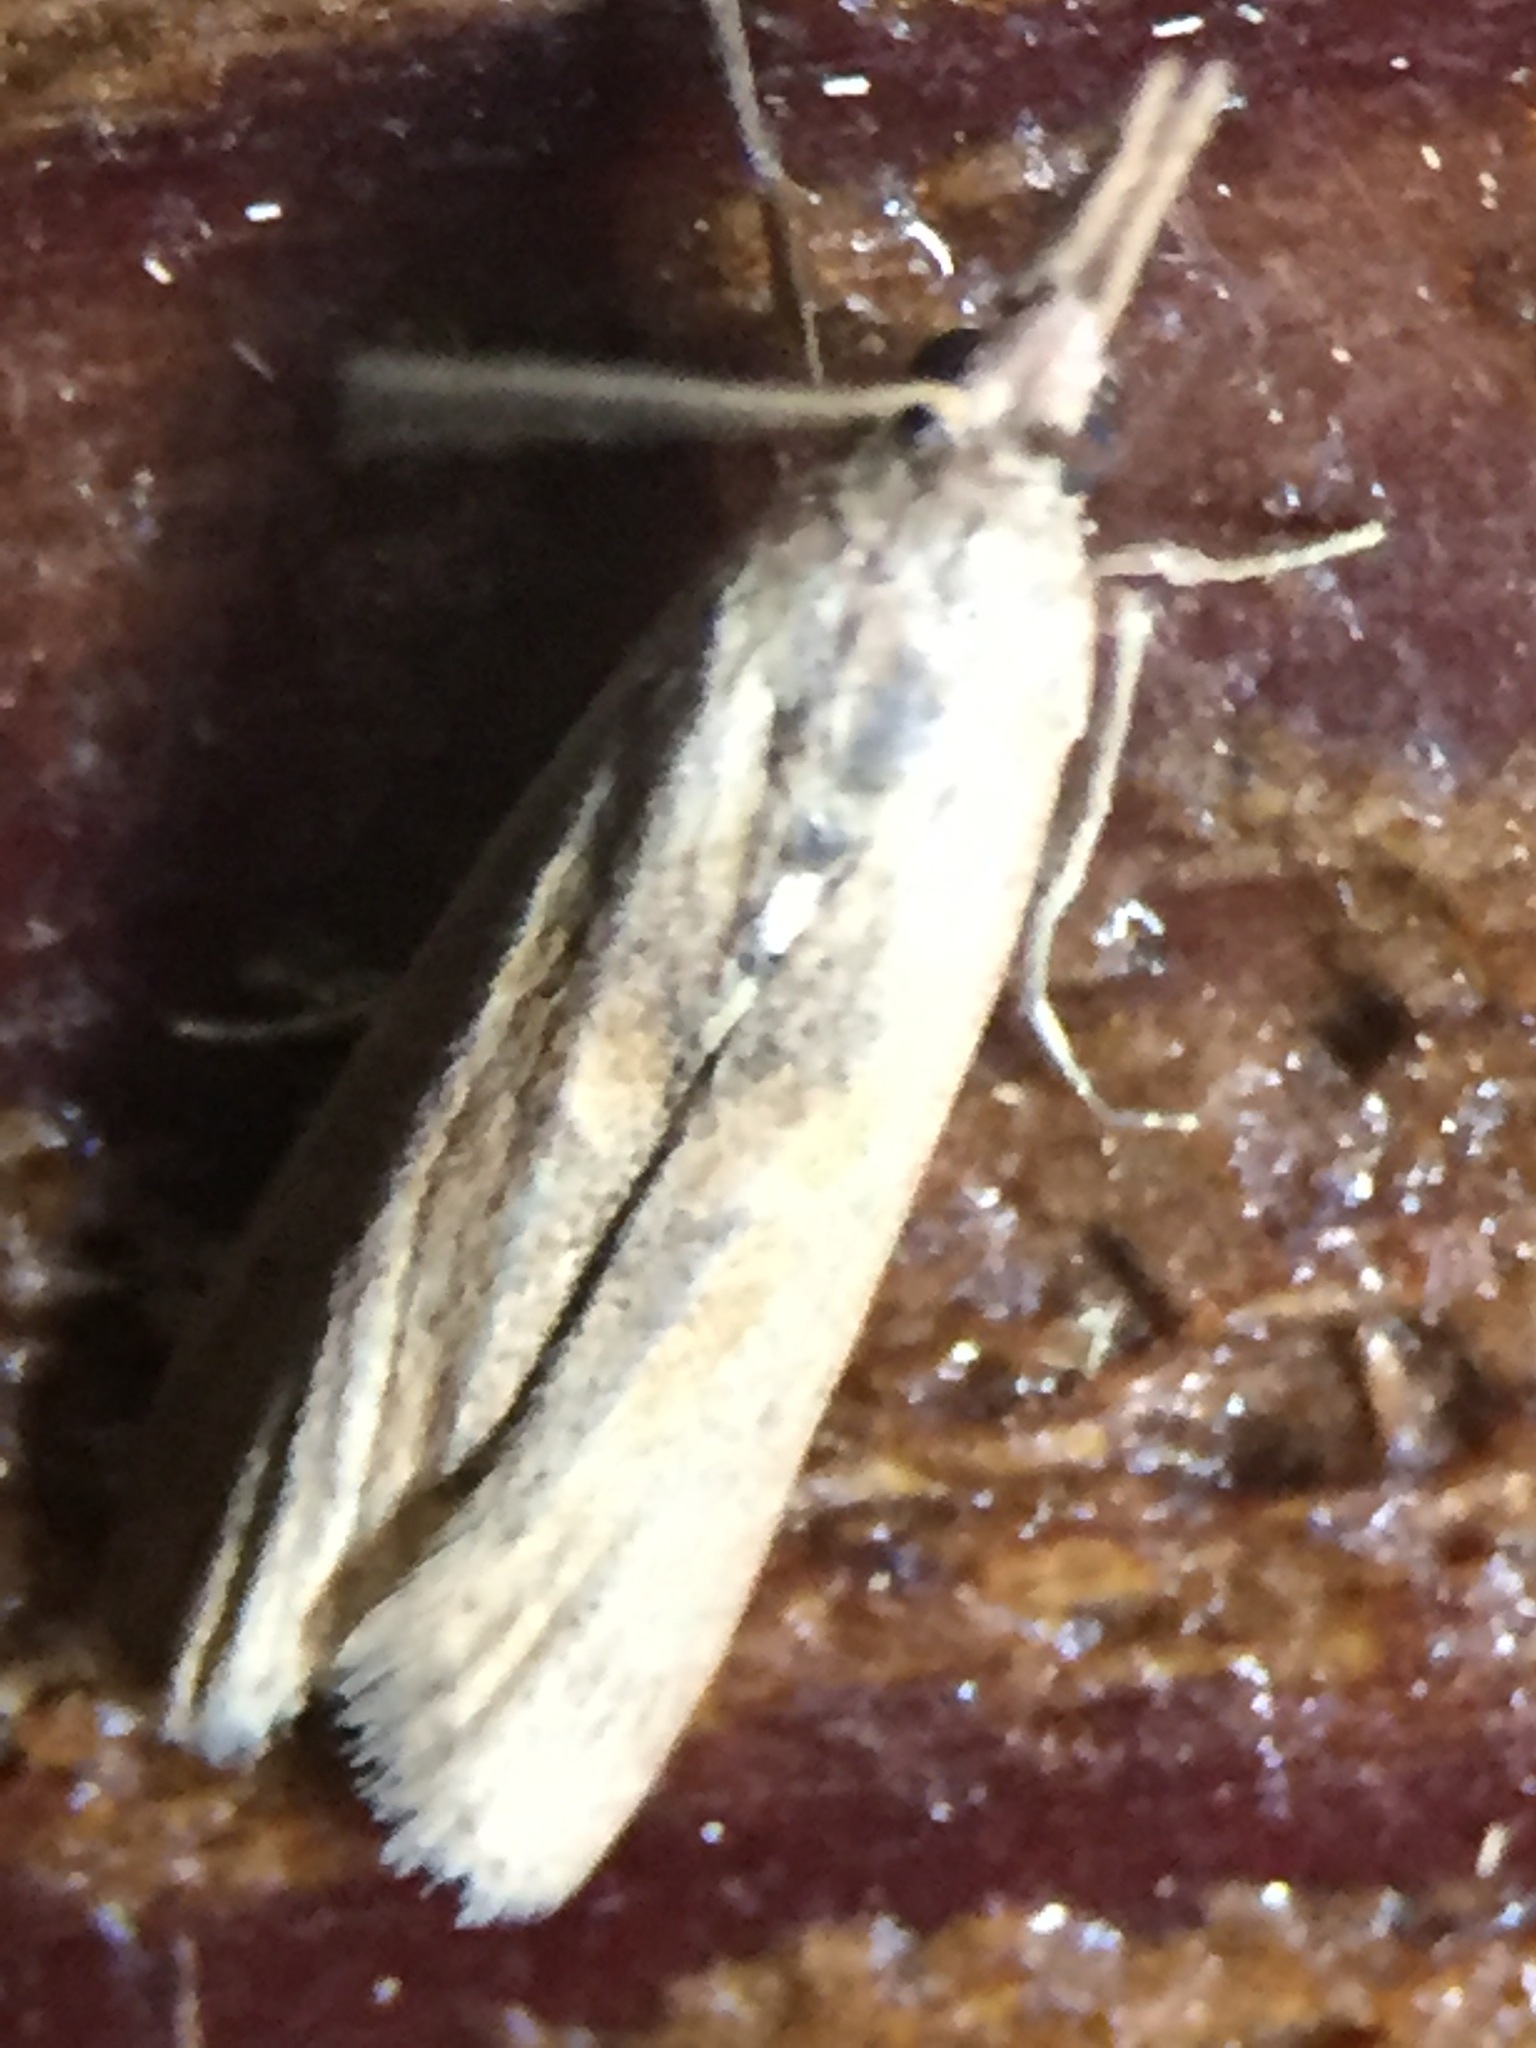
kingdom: Animalia
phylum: Arthropoda
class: Insecta
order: Lepidoptera
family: Pyralidae
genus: Macrorrhinia
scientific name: Macrorrhinia endonephele
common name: Alligator weed stemborer moth
